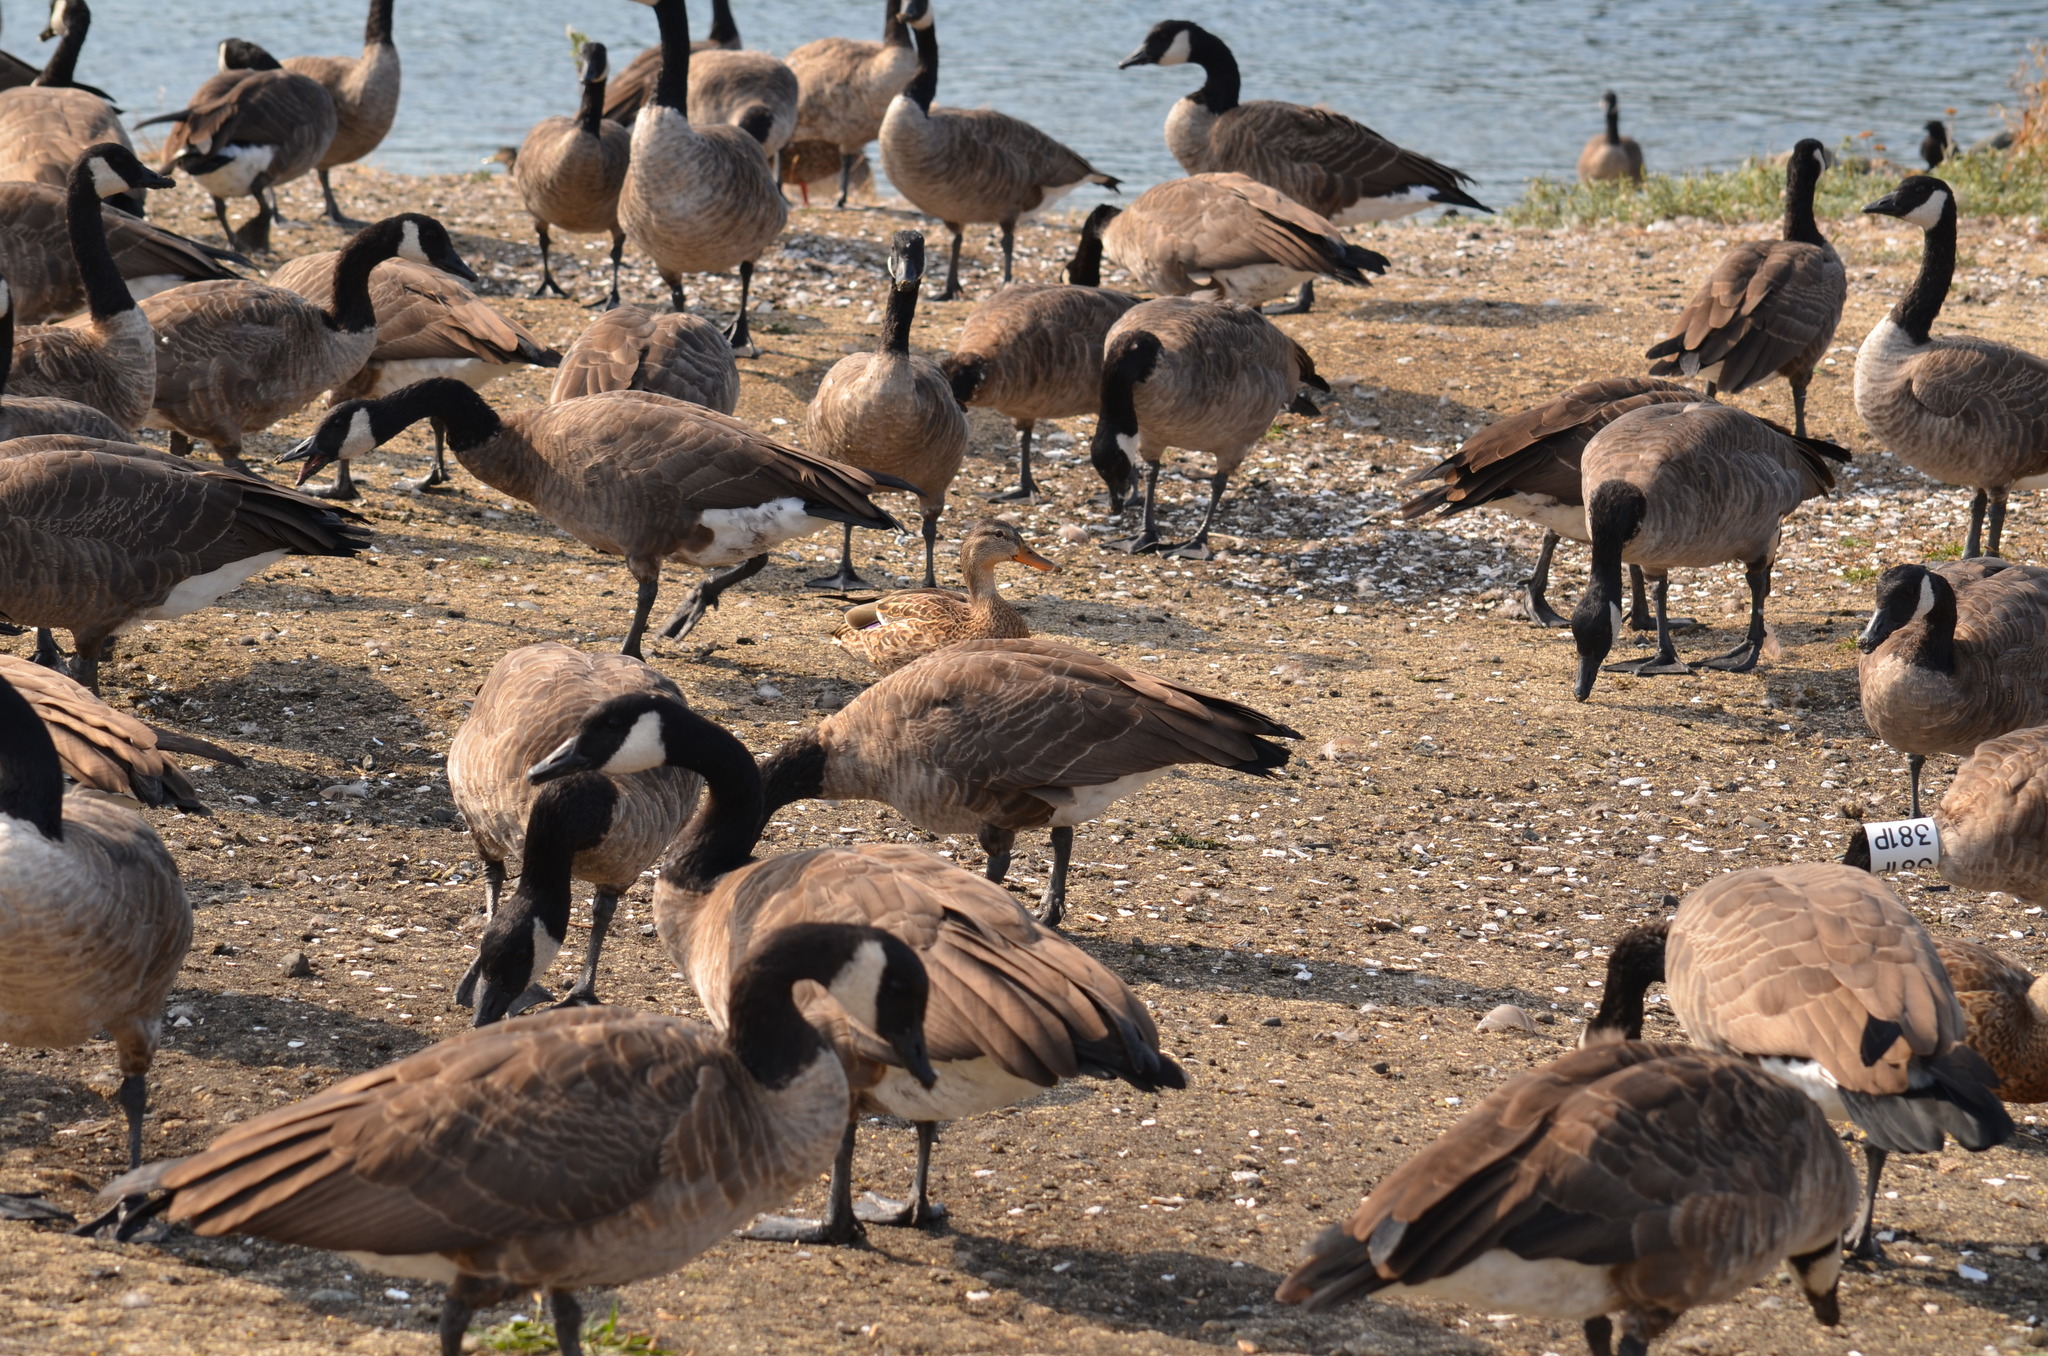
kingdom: Animalia
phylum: Chordata
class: Aves
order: Anseriformes
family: Anatidae
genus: Branta
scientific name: Branta canadensis
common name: Canada goose
